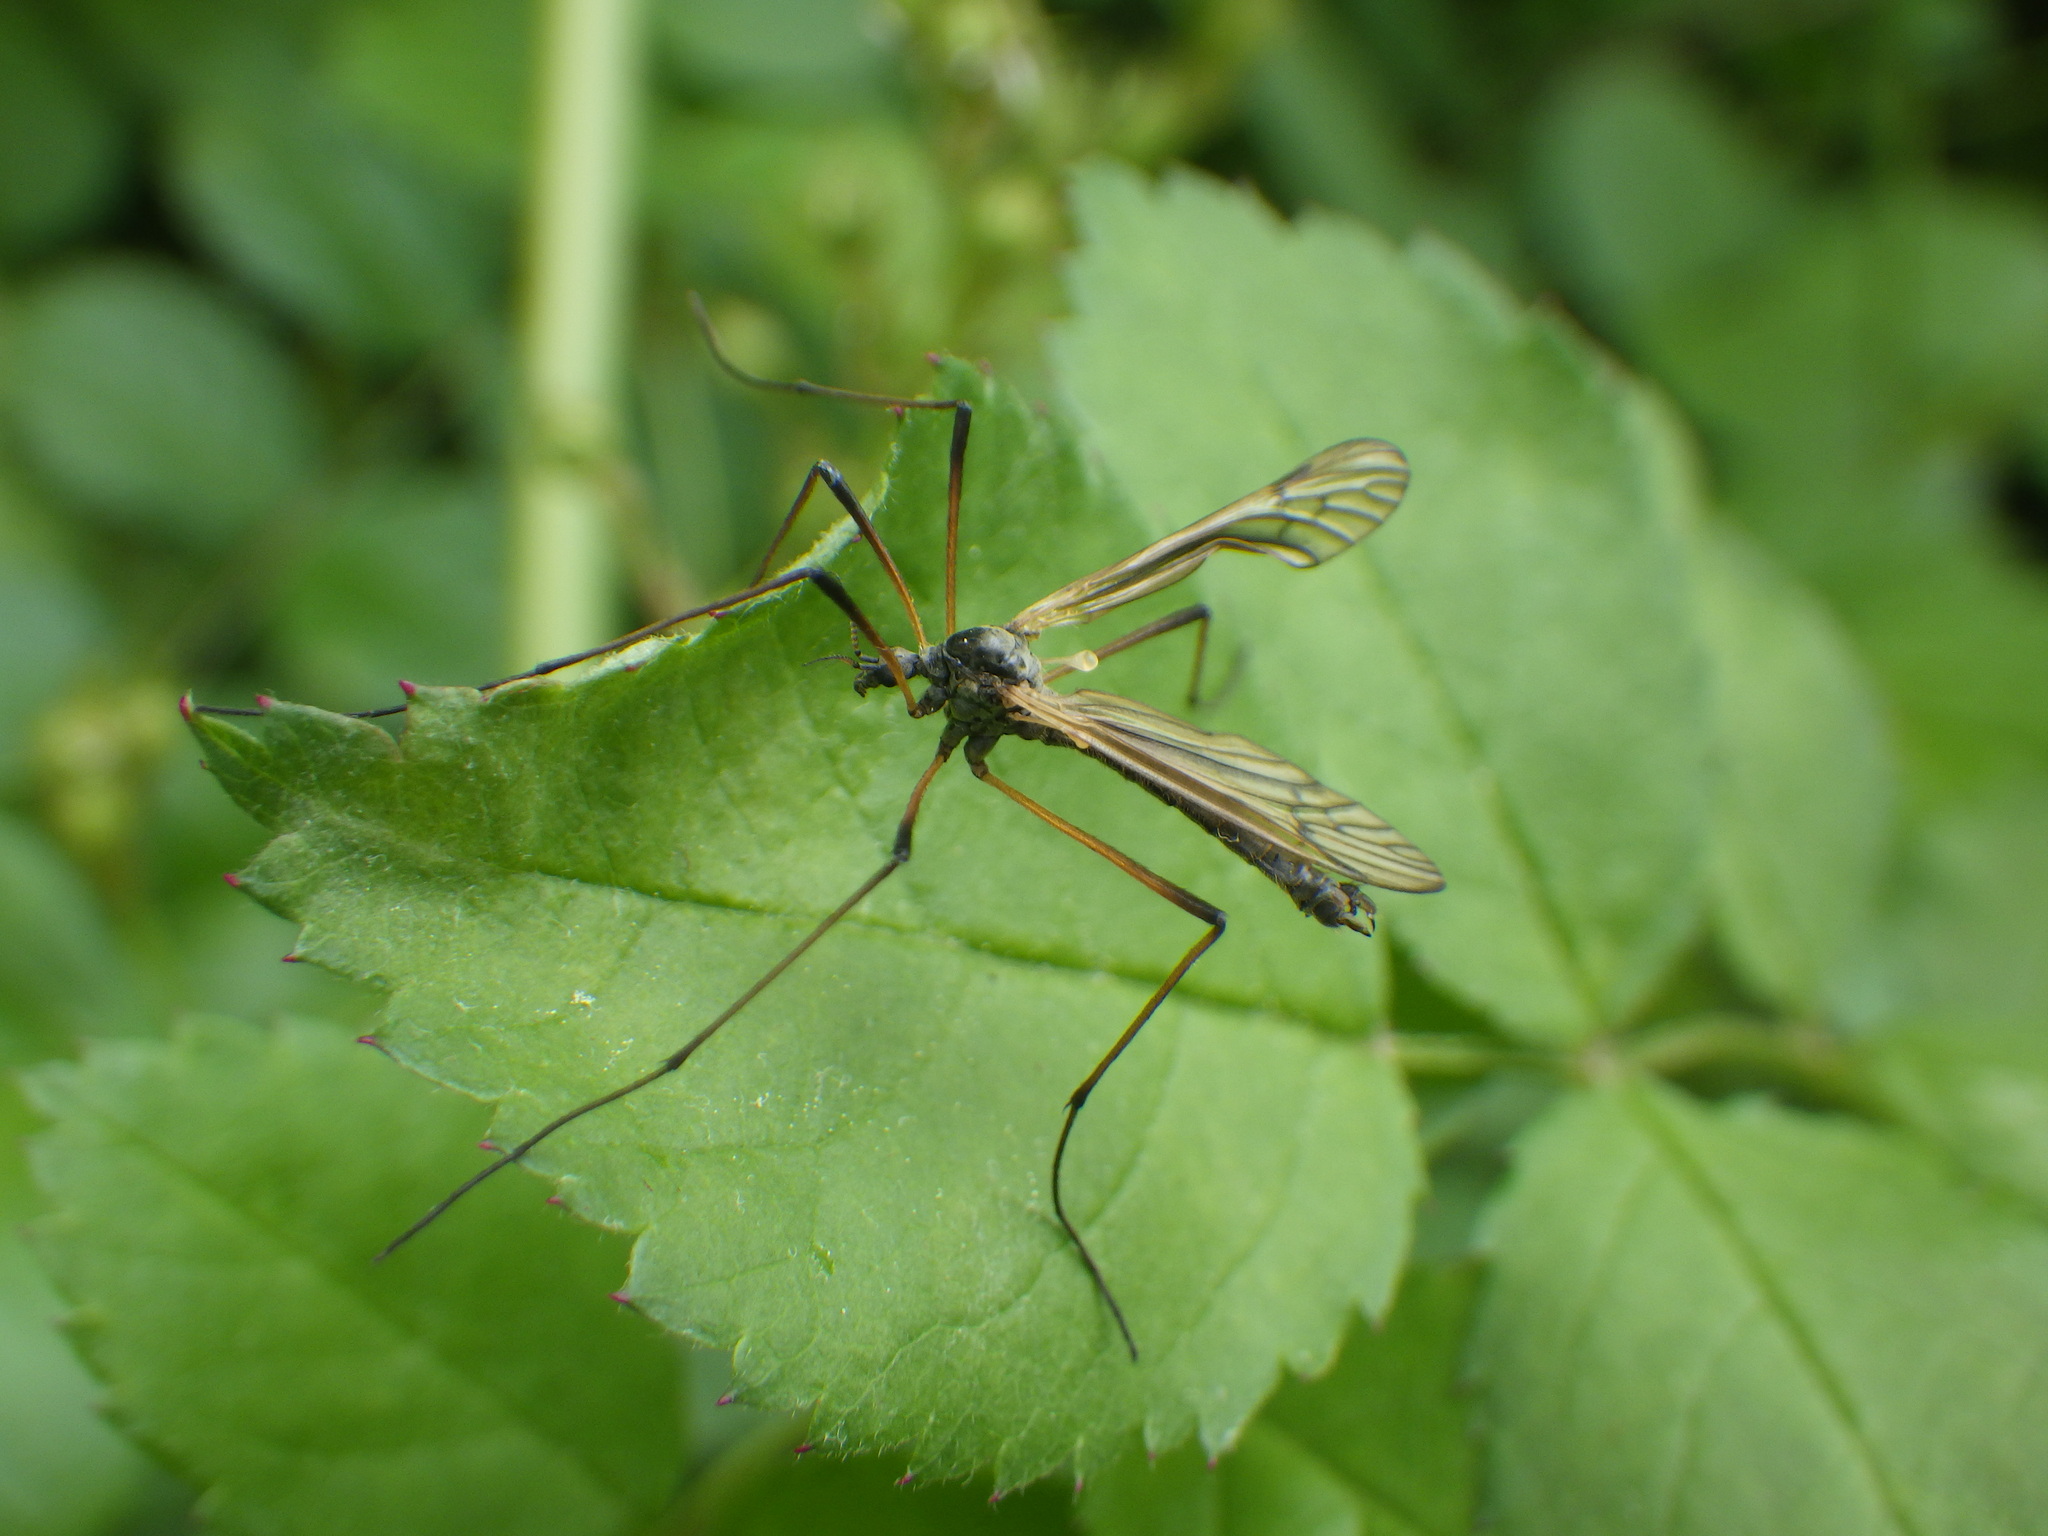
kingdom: Animalia
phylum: Arthropoda
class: Insecta
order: Diptera
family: Limoniidae
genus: Prionolabis
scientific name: Prionolabis rufibasis
